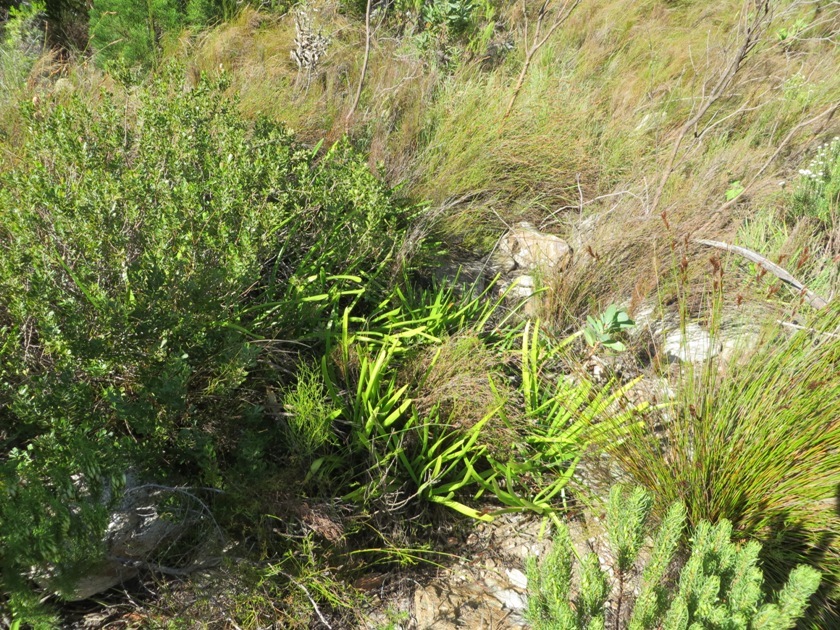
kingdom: Plantae
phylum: Tracheophyta
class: Magnoliopsida
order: Proteales
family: Proteaceae
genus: Hakea
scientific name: Hakea sericea
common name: Needle bush
